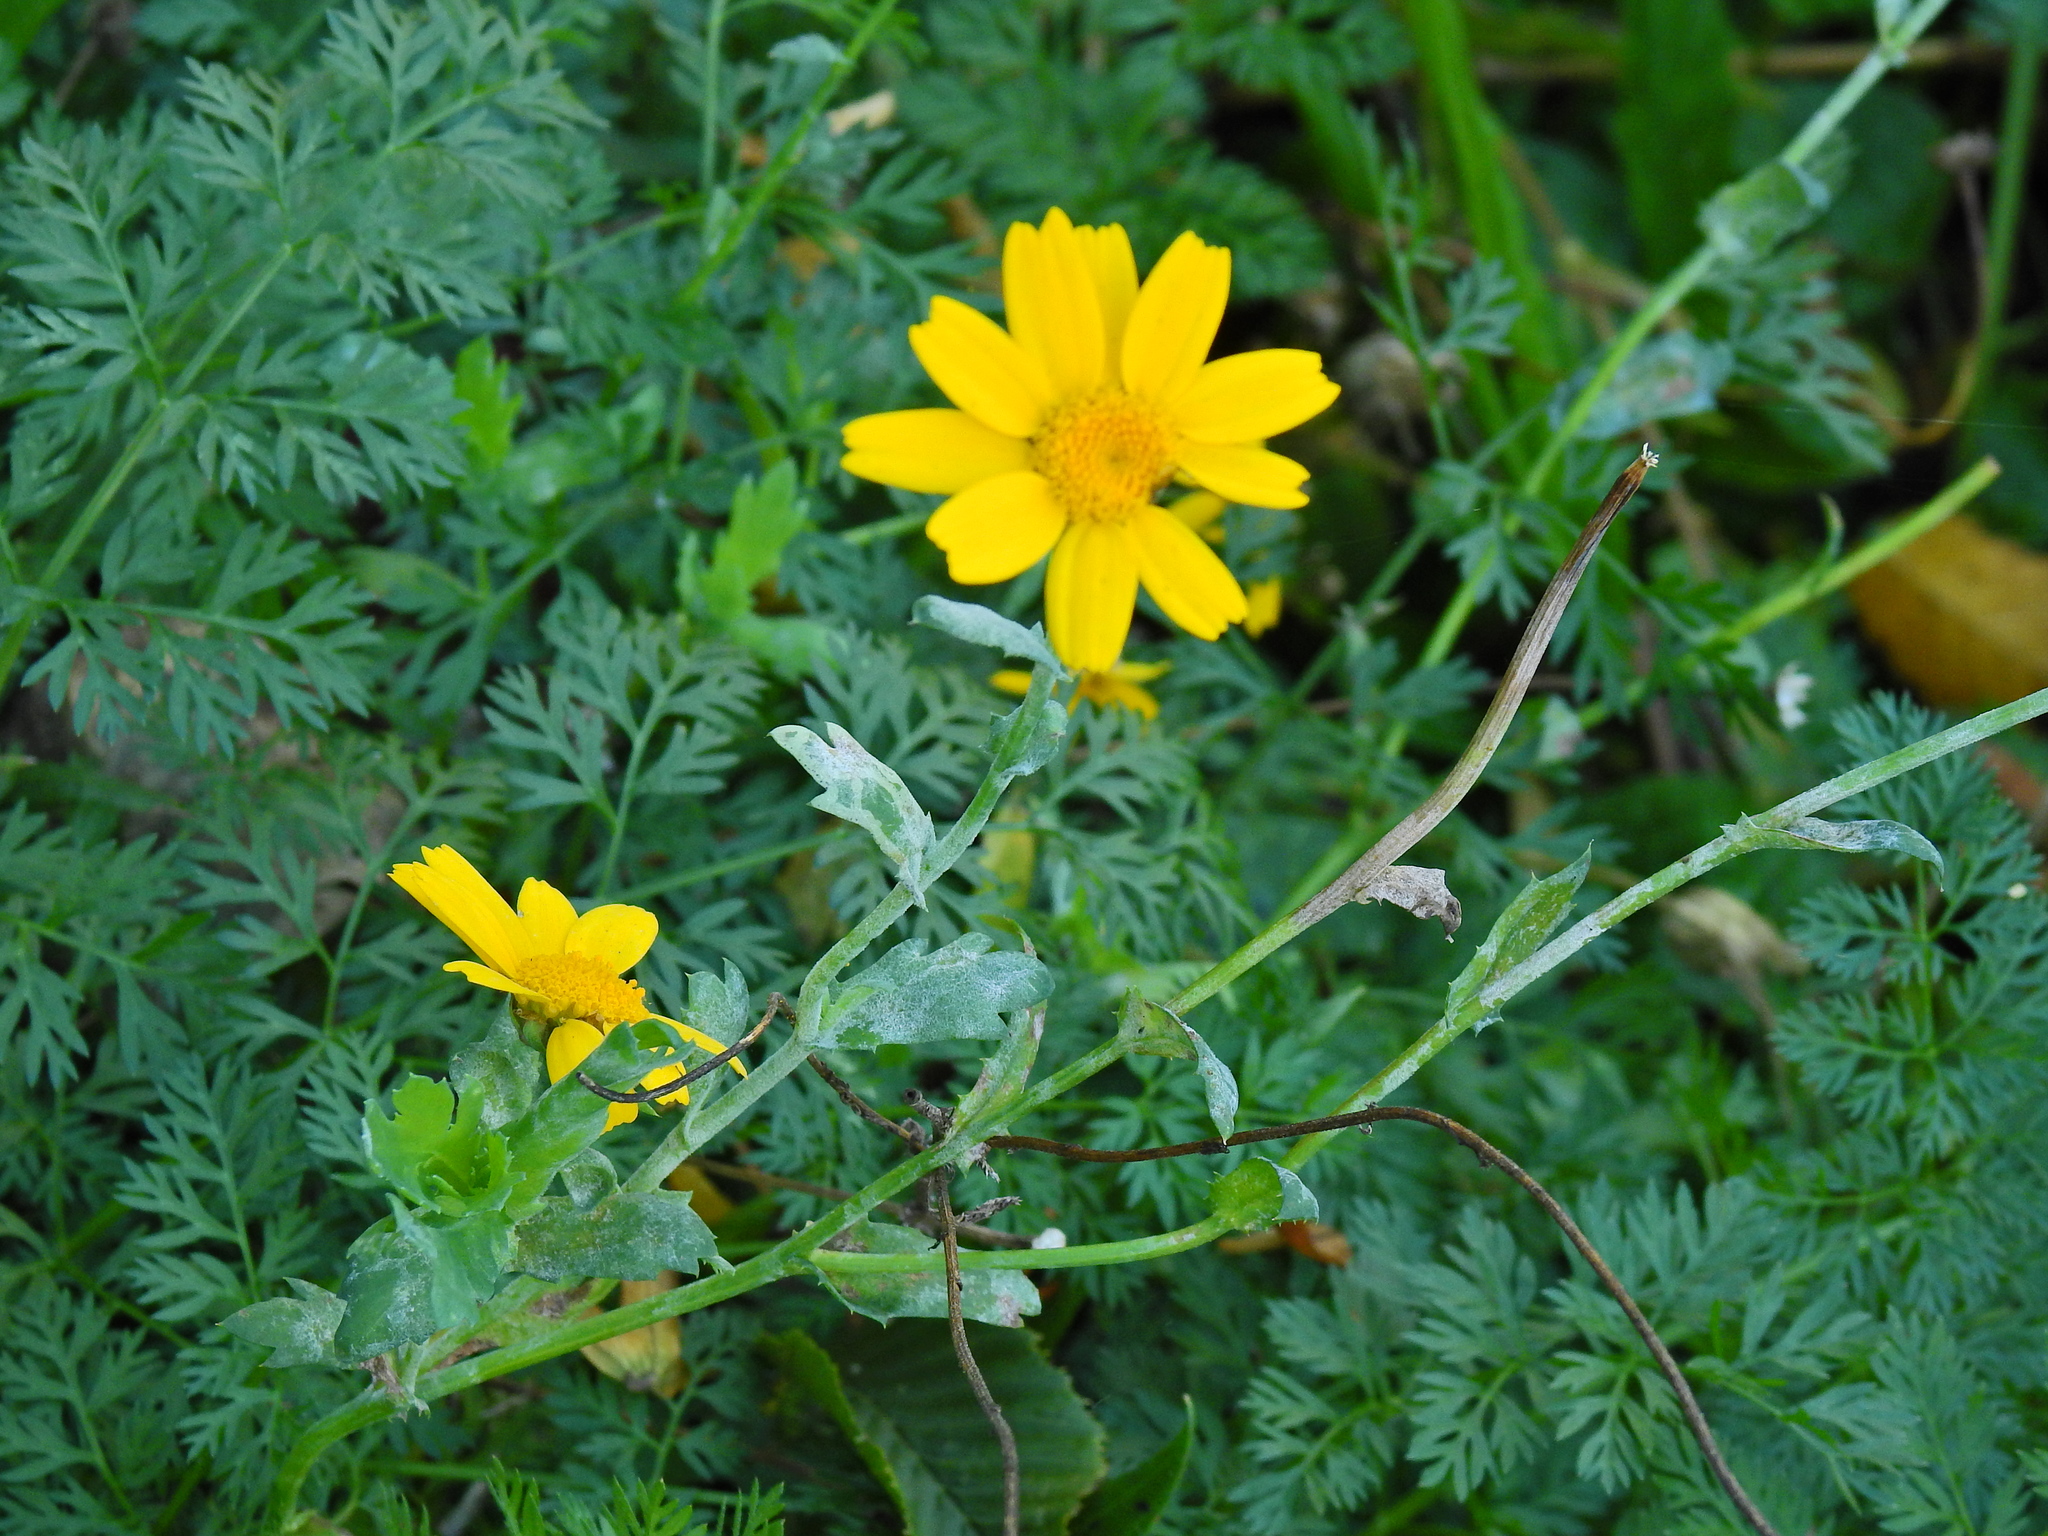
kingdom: Plantae
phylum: Tracheophyta
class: Magnoliopsida
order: Asterales
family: Asteraceae
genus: Glebionis
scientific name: Glebionis segetum
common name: Corndaisy
